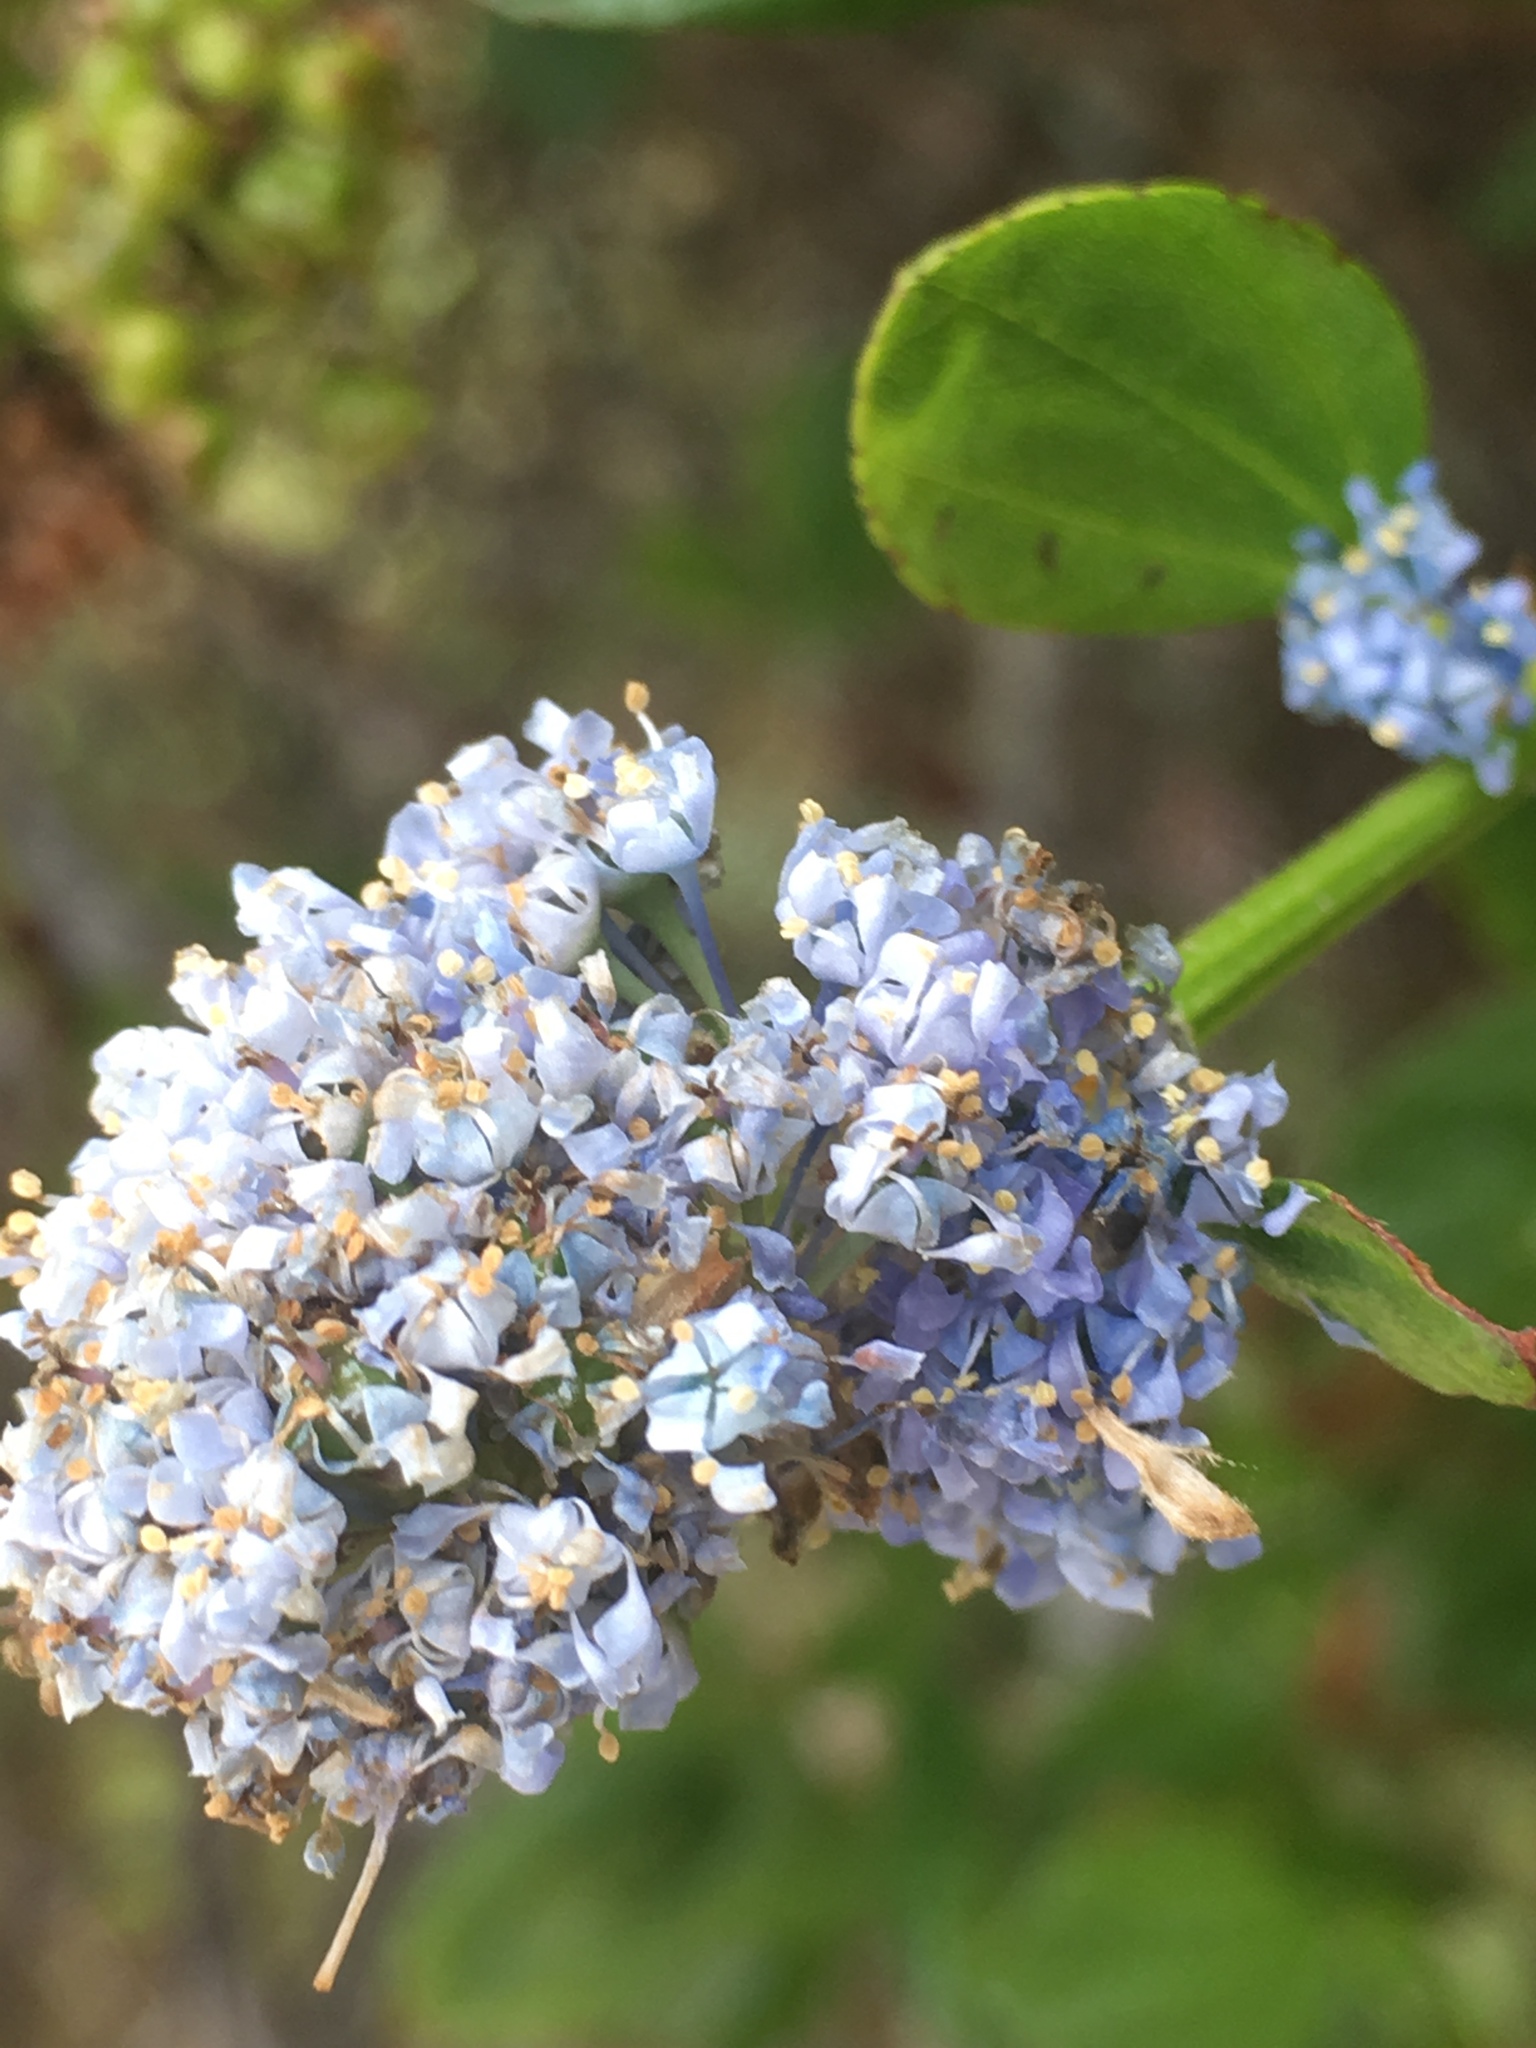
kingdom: Plantae
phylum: Tracheophyta
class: Magnoliopsida
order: Rosales
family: Rhamnaceae
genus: Ceanothus
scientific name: Ceanothus thyrsiflorus
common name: California-lilac
